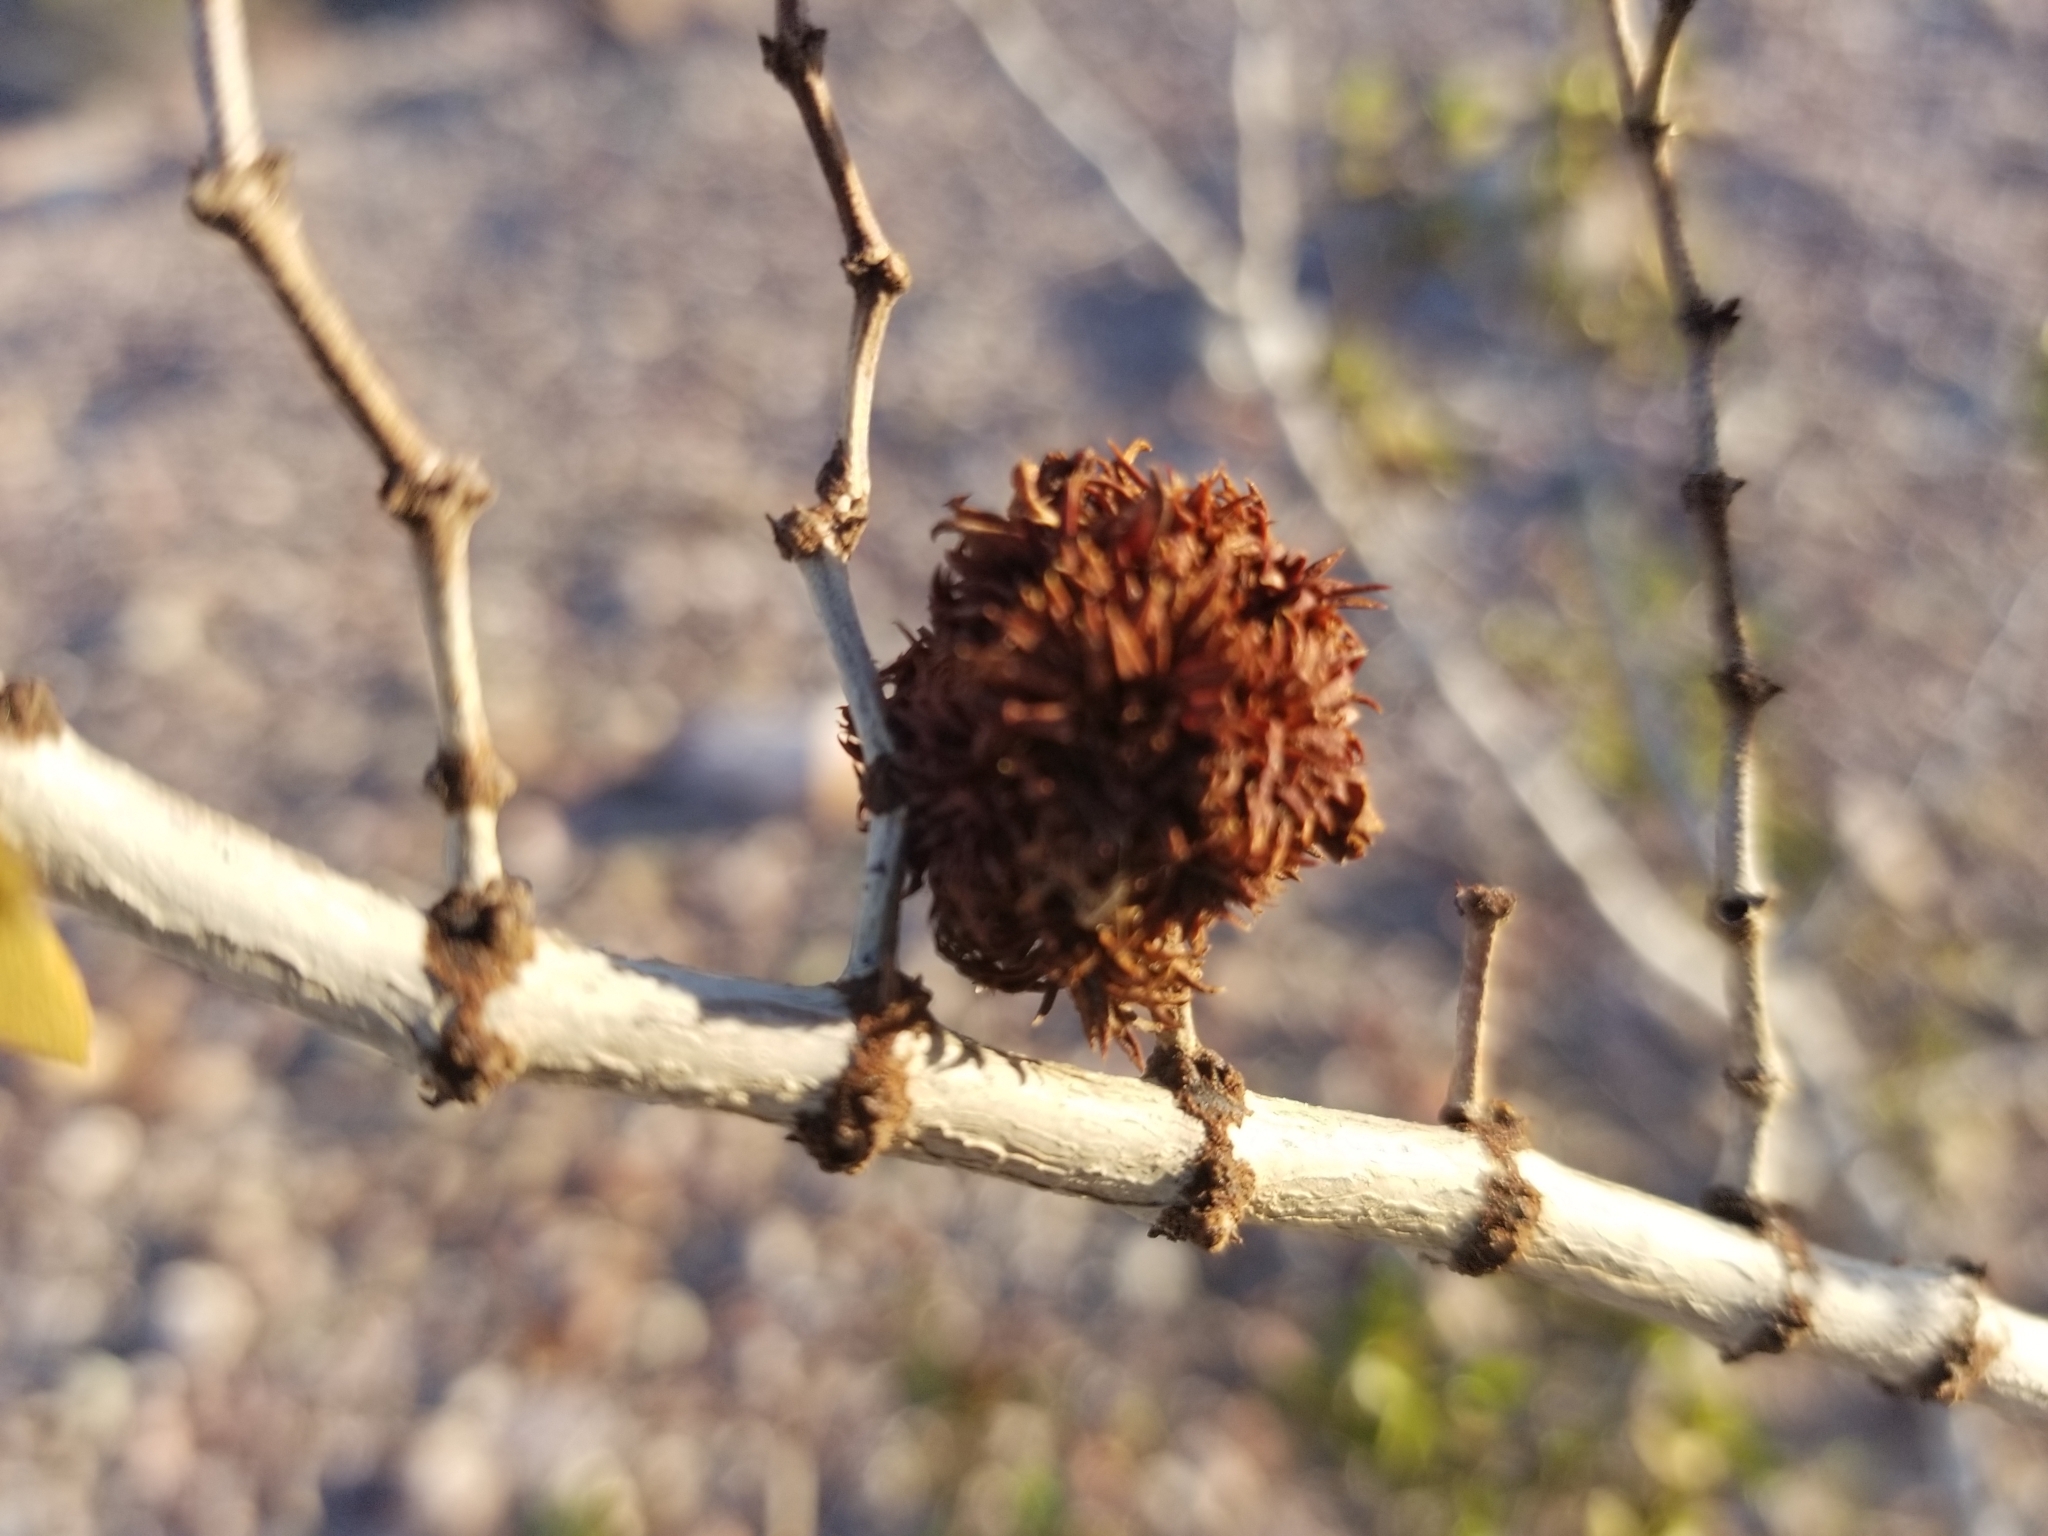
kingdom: Animalia
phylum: Arthropoda
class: Insecta
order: Diptera
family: Cecidomyiidae
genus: Asphondylia
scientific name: Asphondylia auripila
